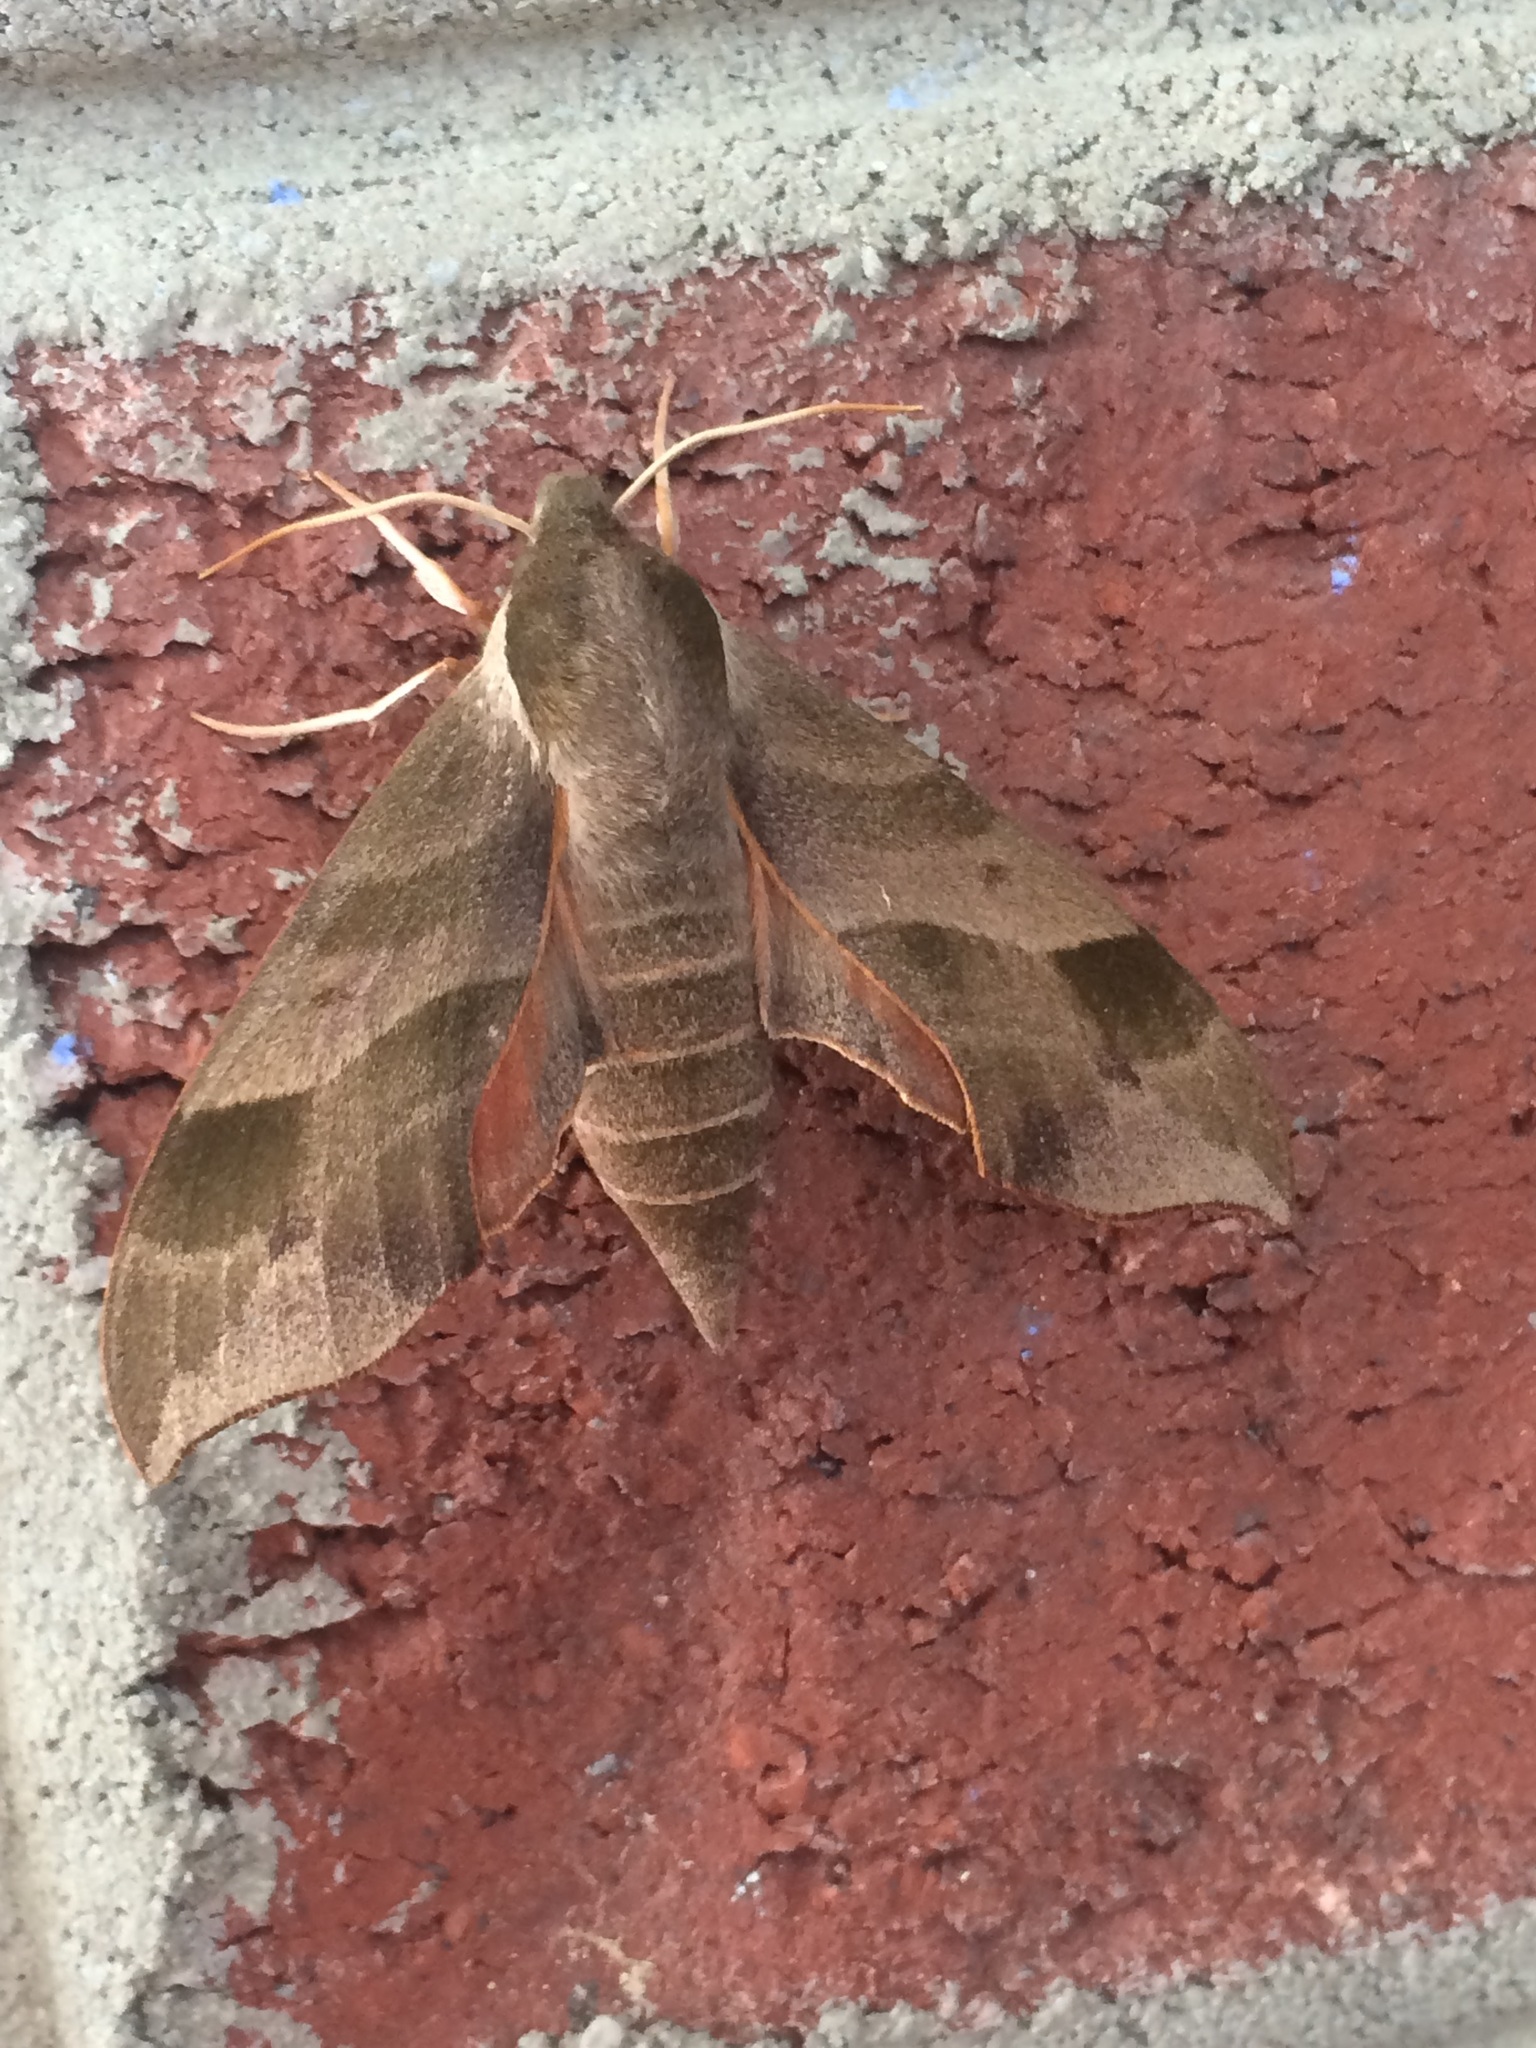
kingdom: Animalia
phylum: Arthropoda
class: Insecta
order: Lepidoptera
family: Sphingidae
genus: Darapsa
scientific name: Darapsa myron
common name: Hog sphinx
